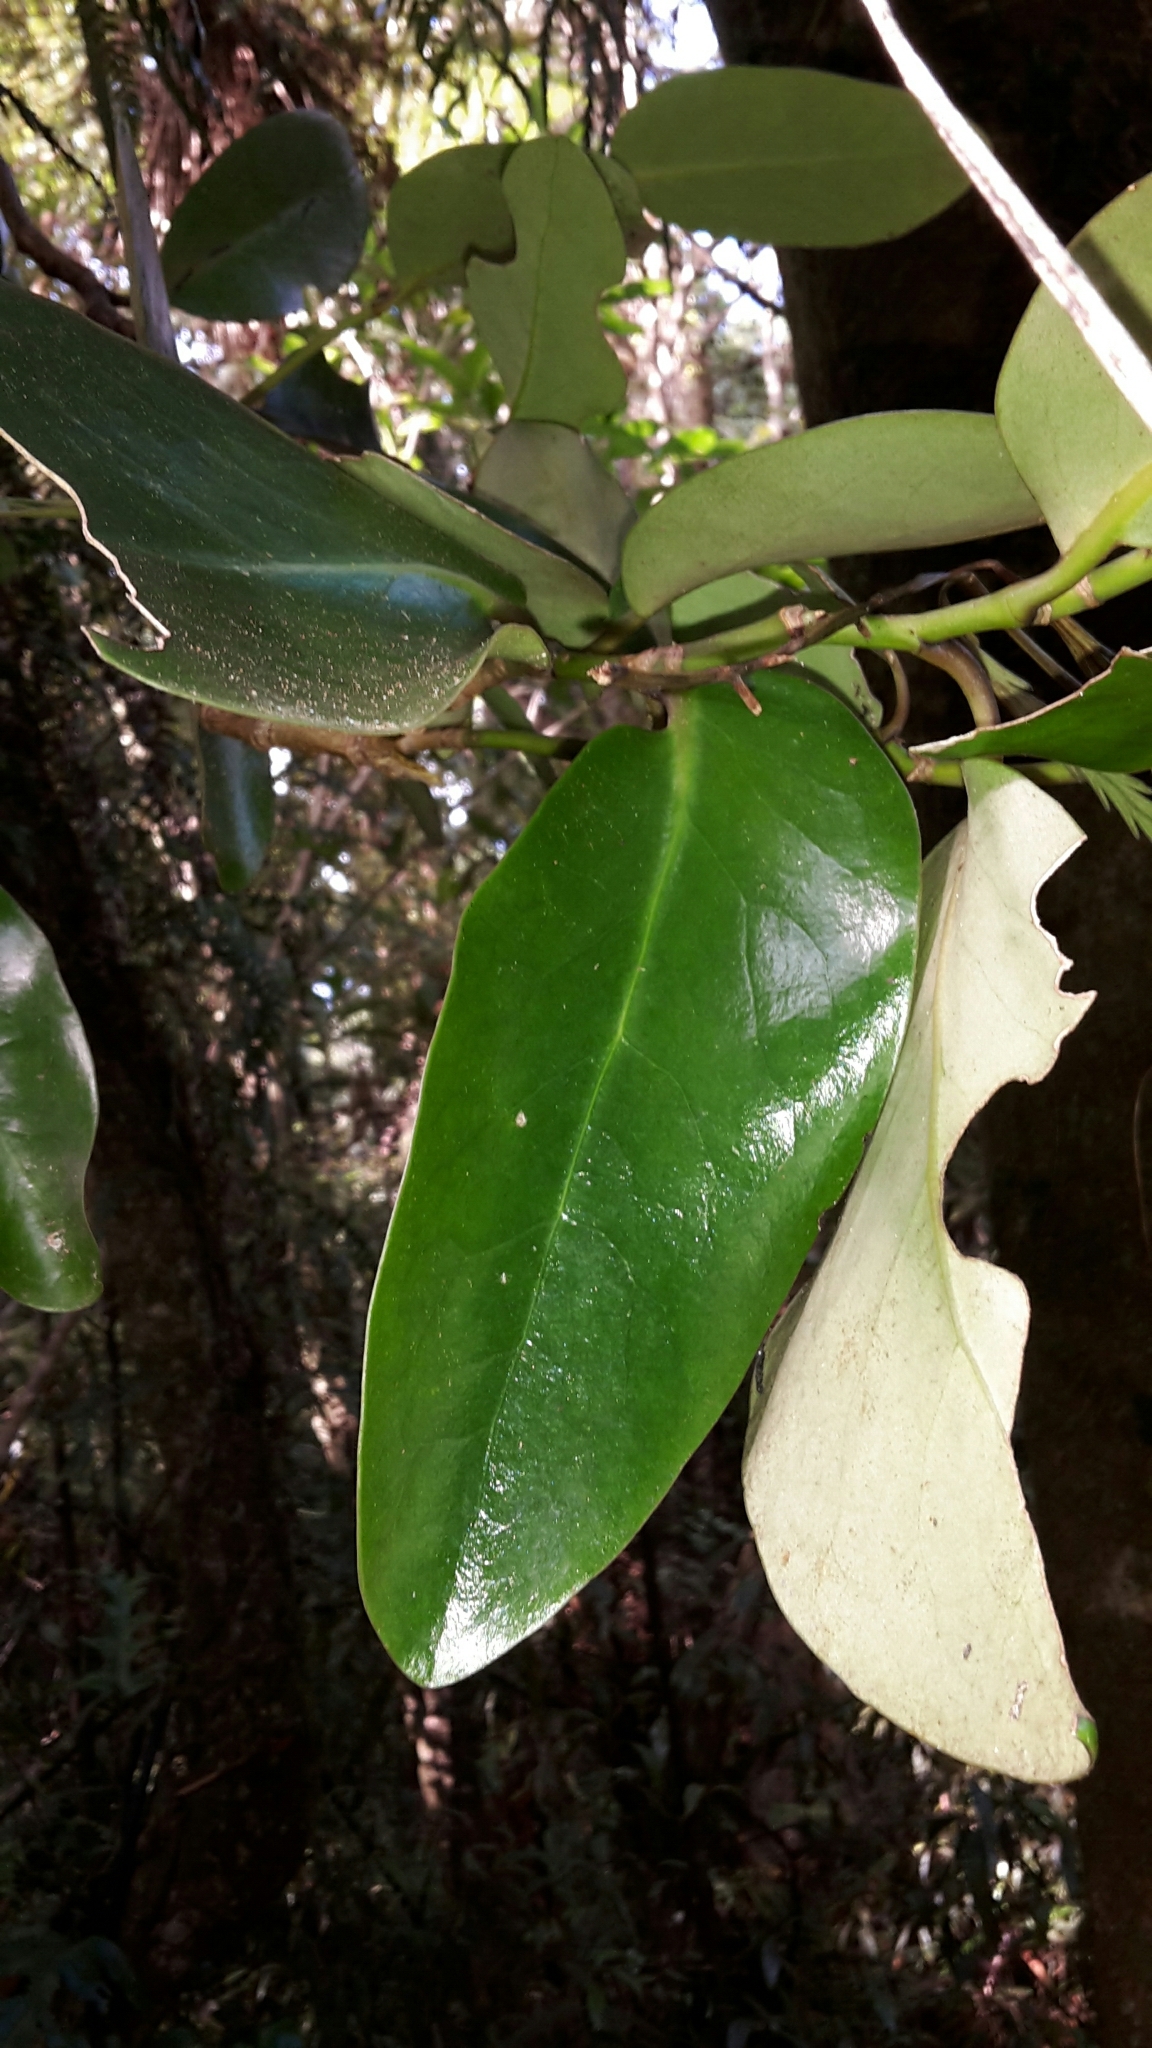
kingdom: Plantae
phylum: Tracheophyta
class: Magnoliopsida
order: Apiales
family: Griseliniaceae
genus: Griselinia
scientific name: Griselinia lucida
